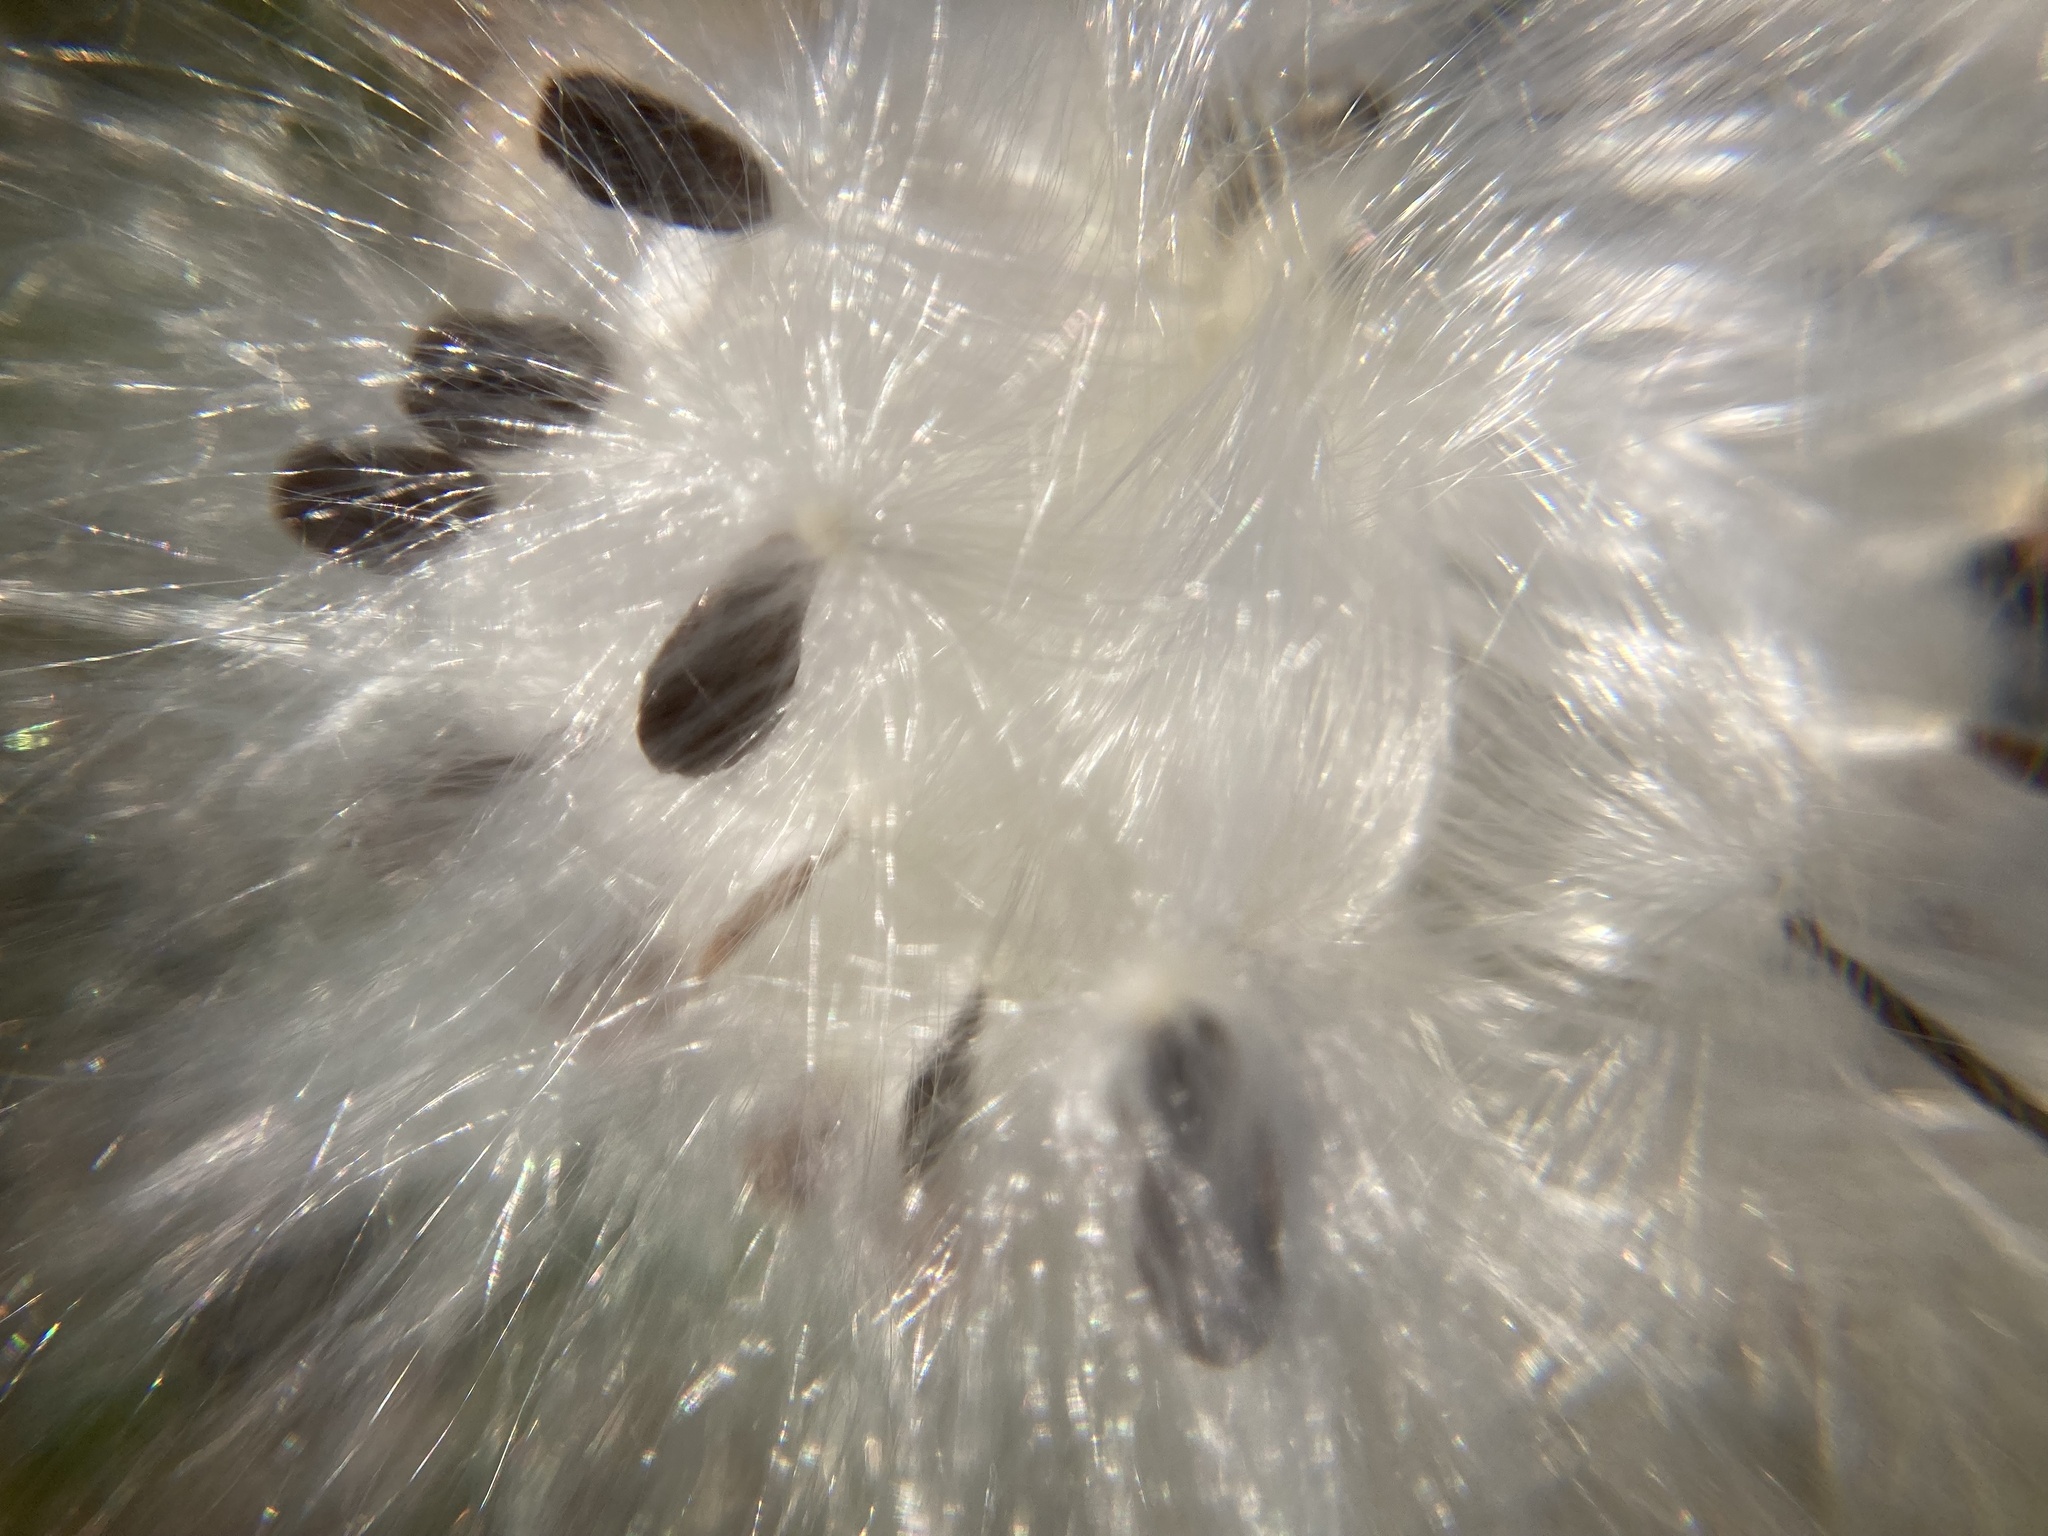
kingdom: Plantae
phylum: Tracheophyta
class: Magnoliopsida
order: Gentianales
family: Apocynaceae
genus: Asclepias
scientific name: Asclepias syriaca
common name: Common milkweed
